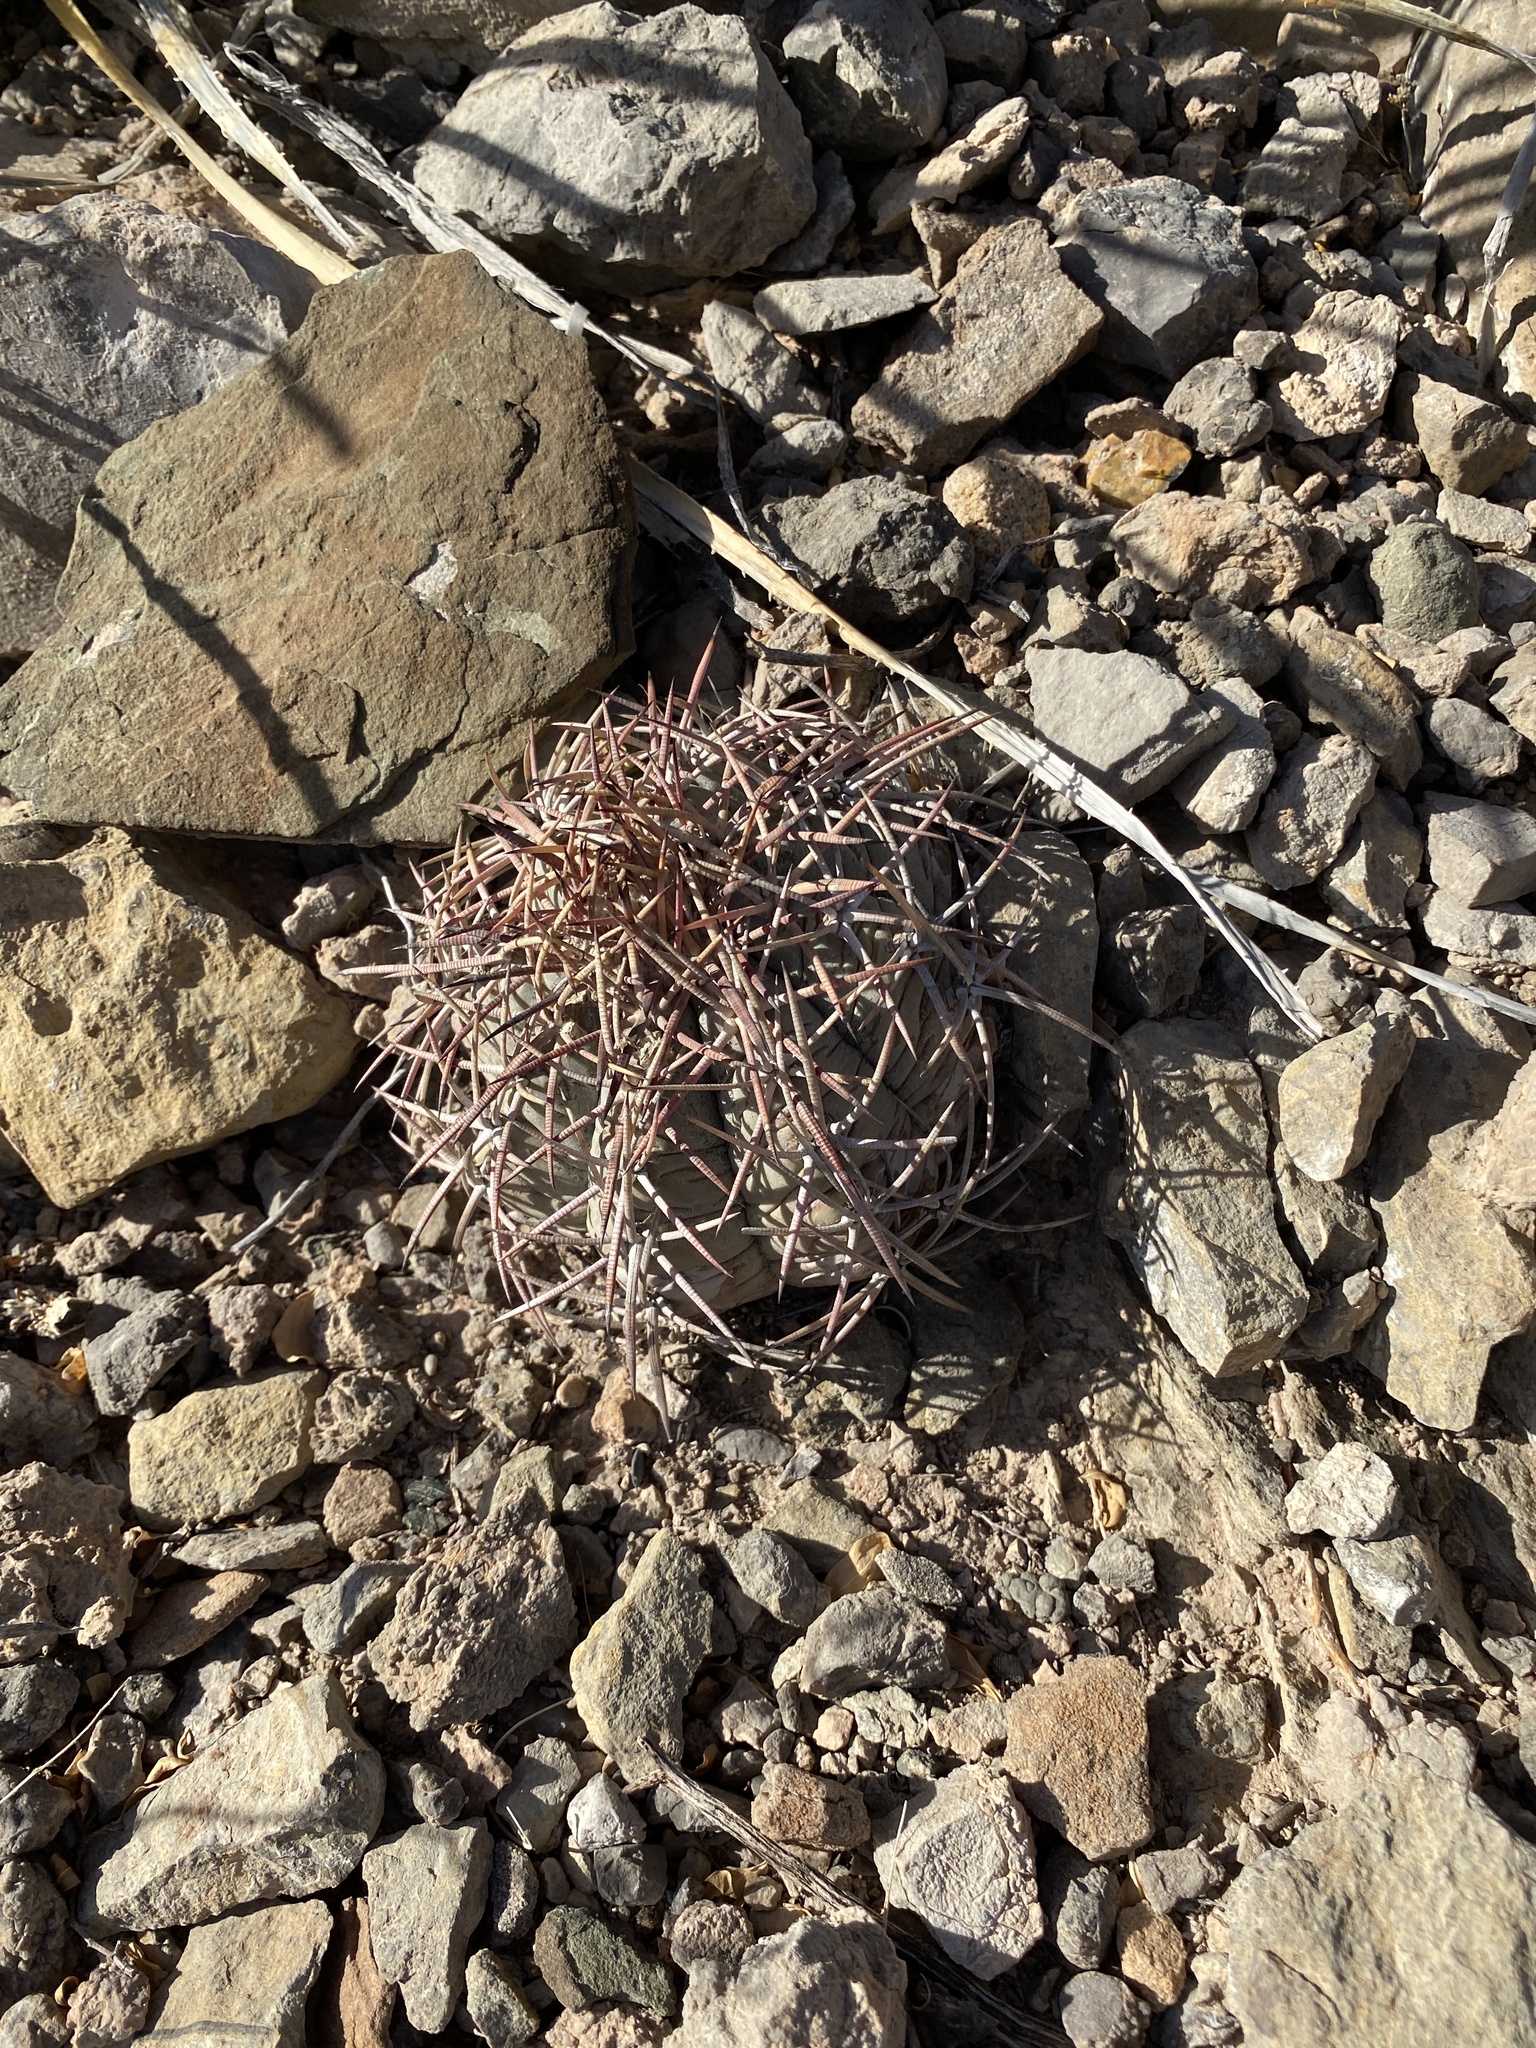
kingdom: Plantae
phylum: Tracheophyta
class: Magnoliopsida
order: Caryophyllales
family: Cactaceae
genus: Echinocactus
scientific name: Echinocactus horizonthalonius
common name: Devilshead
